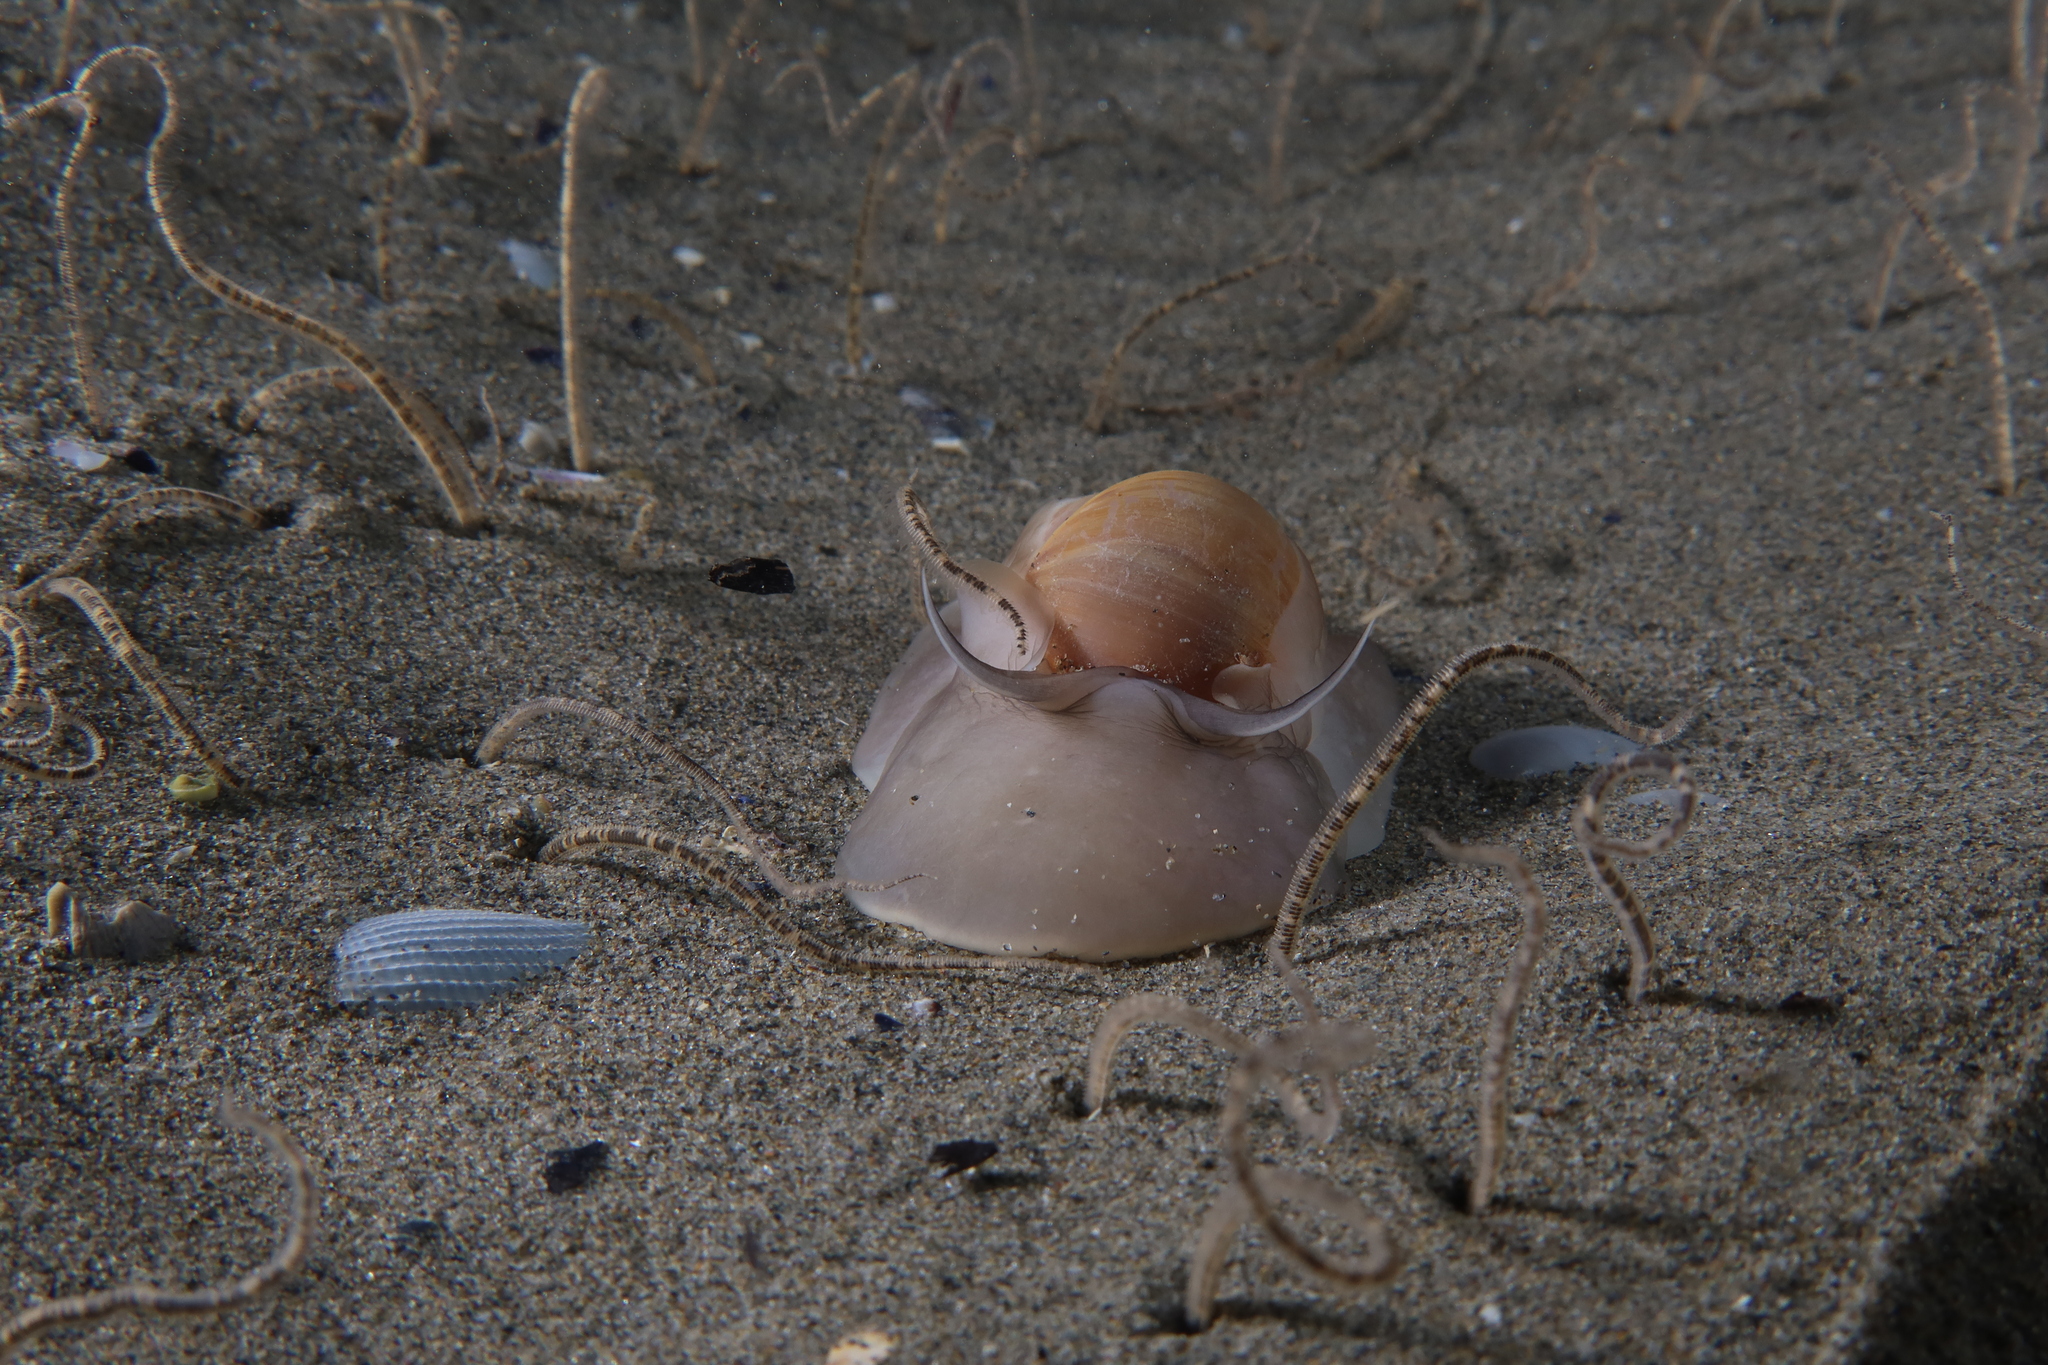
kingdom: Animalia
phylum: Mollusca
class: Gastropoda
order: Littorinimorpha
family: Naticidae
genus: Euspira
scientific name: Euspira catena
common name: Necklace shell
